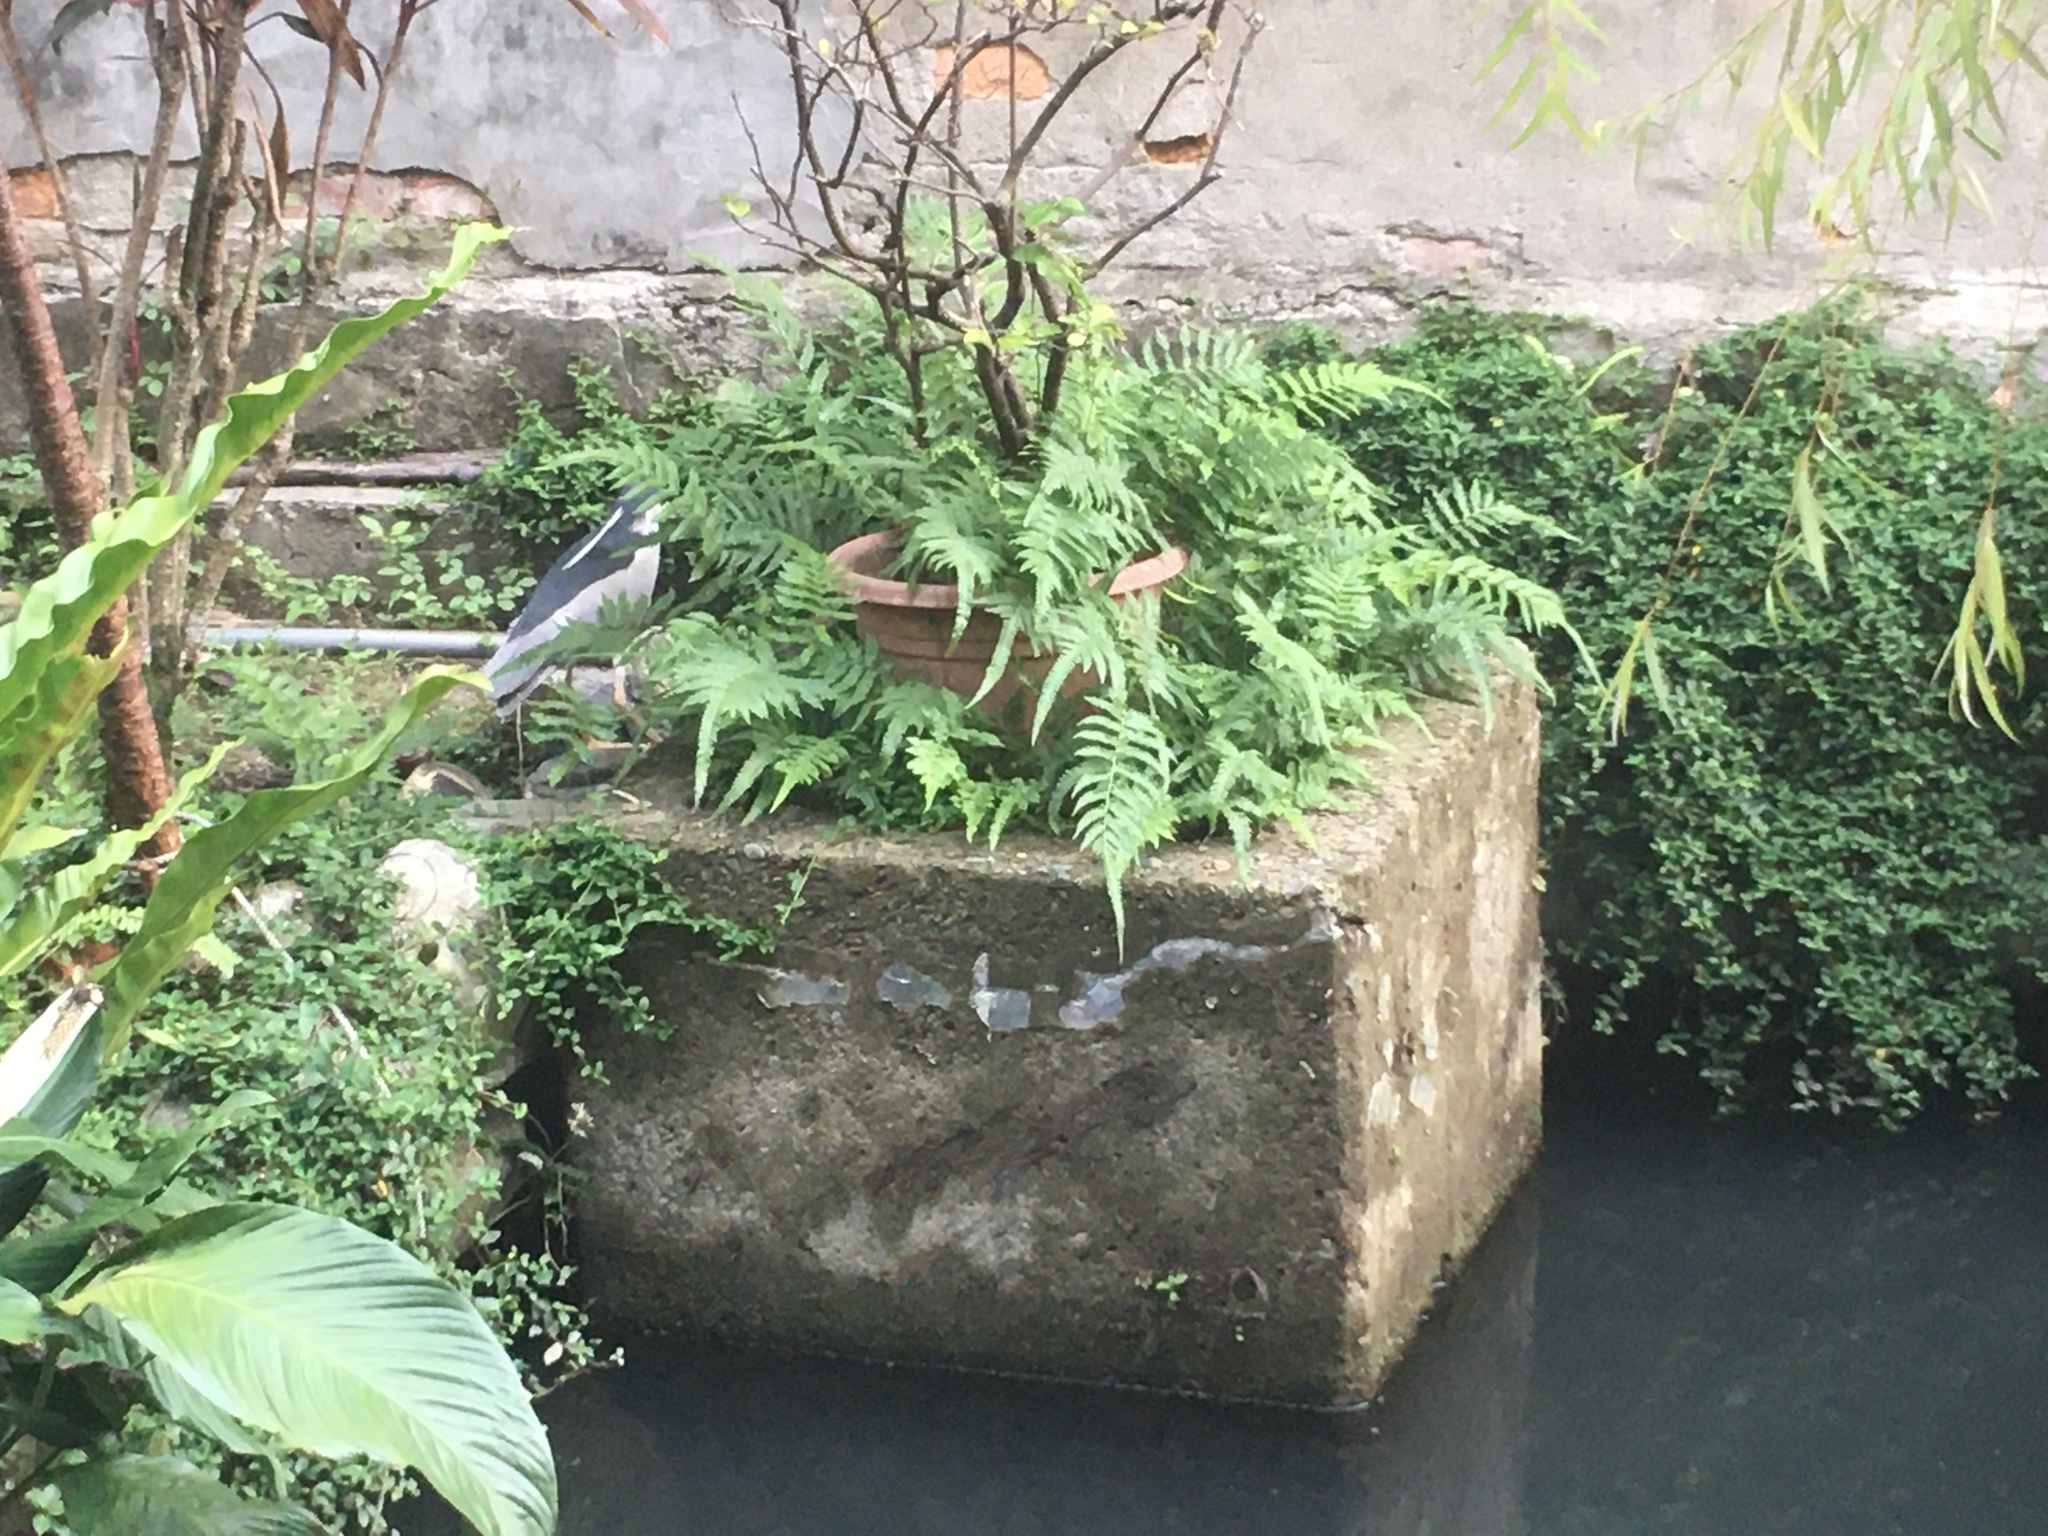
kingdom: Animalia
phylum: Chordata
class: Aves
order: Pelecaniformes
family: Ardeidae
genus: Nycticorax
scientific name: Nycticorax nycticorax
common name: Black-crowned night heron
